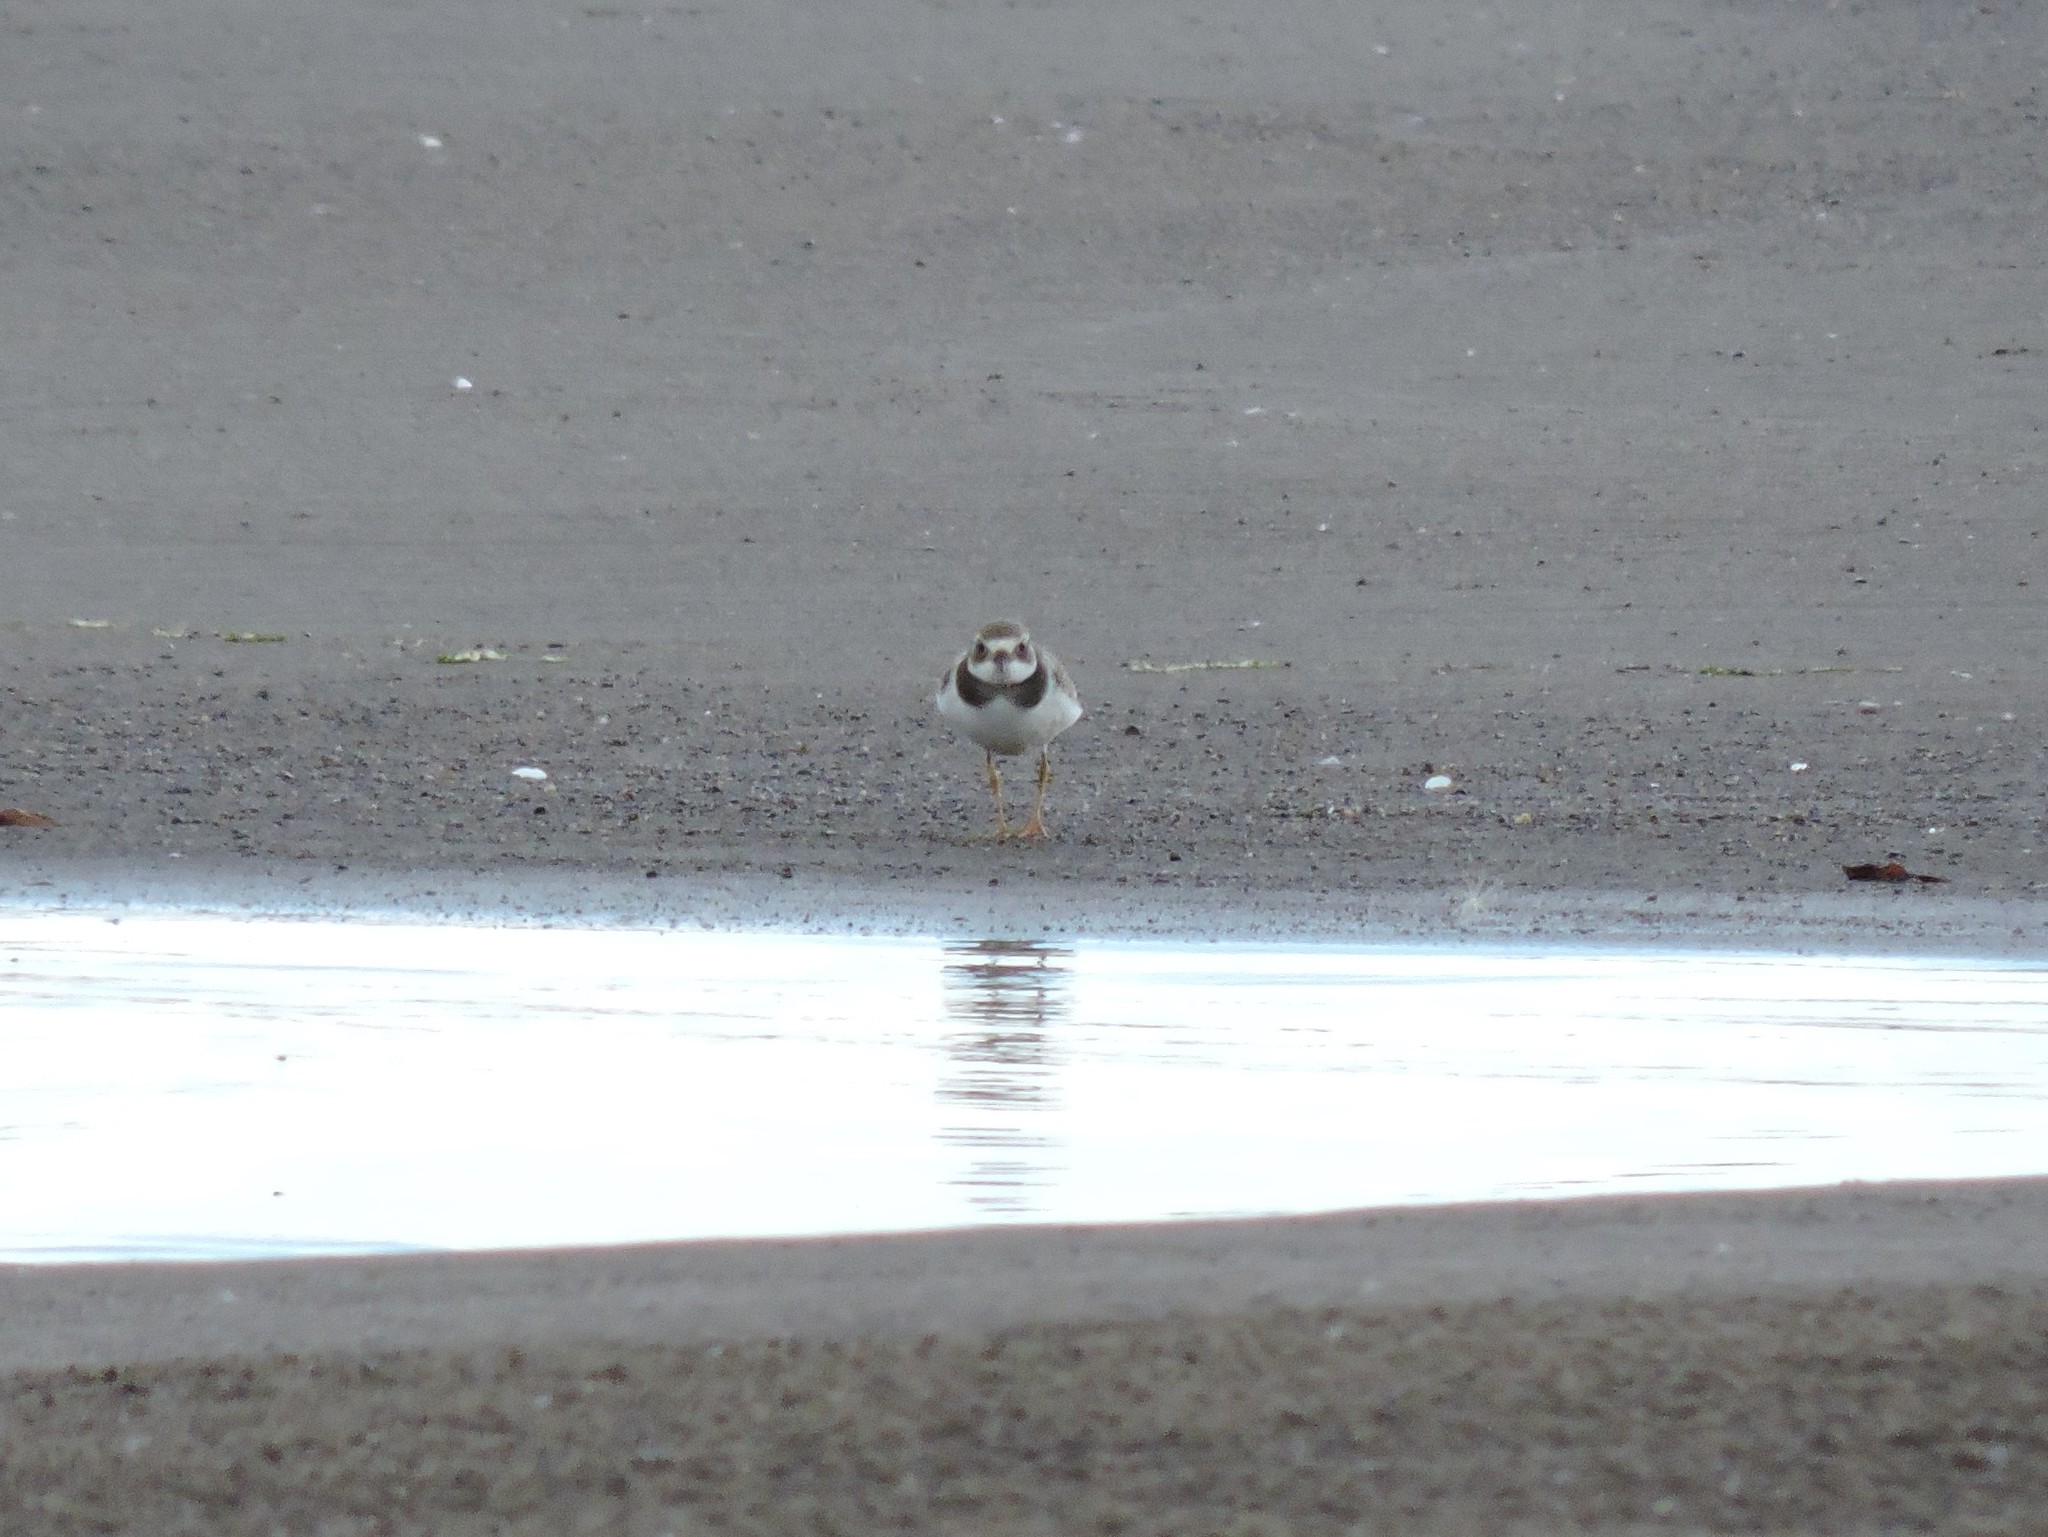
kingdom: Animalia
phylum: Chordata
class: Aves
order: Charadriiformes
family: Charadriidae
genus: Charadrius
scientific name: Charadrius hiaticula
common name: Common ringed plover
